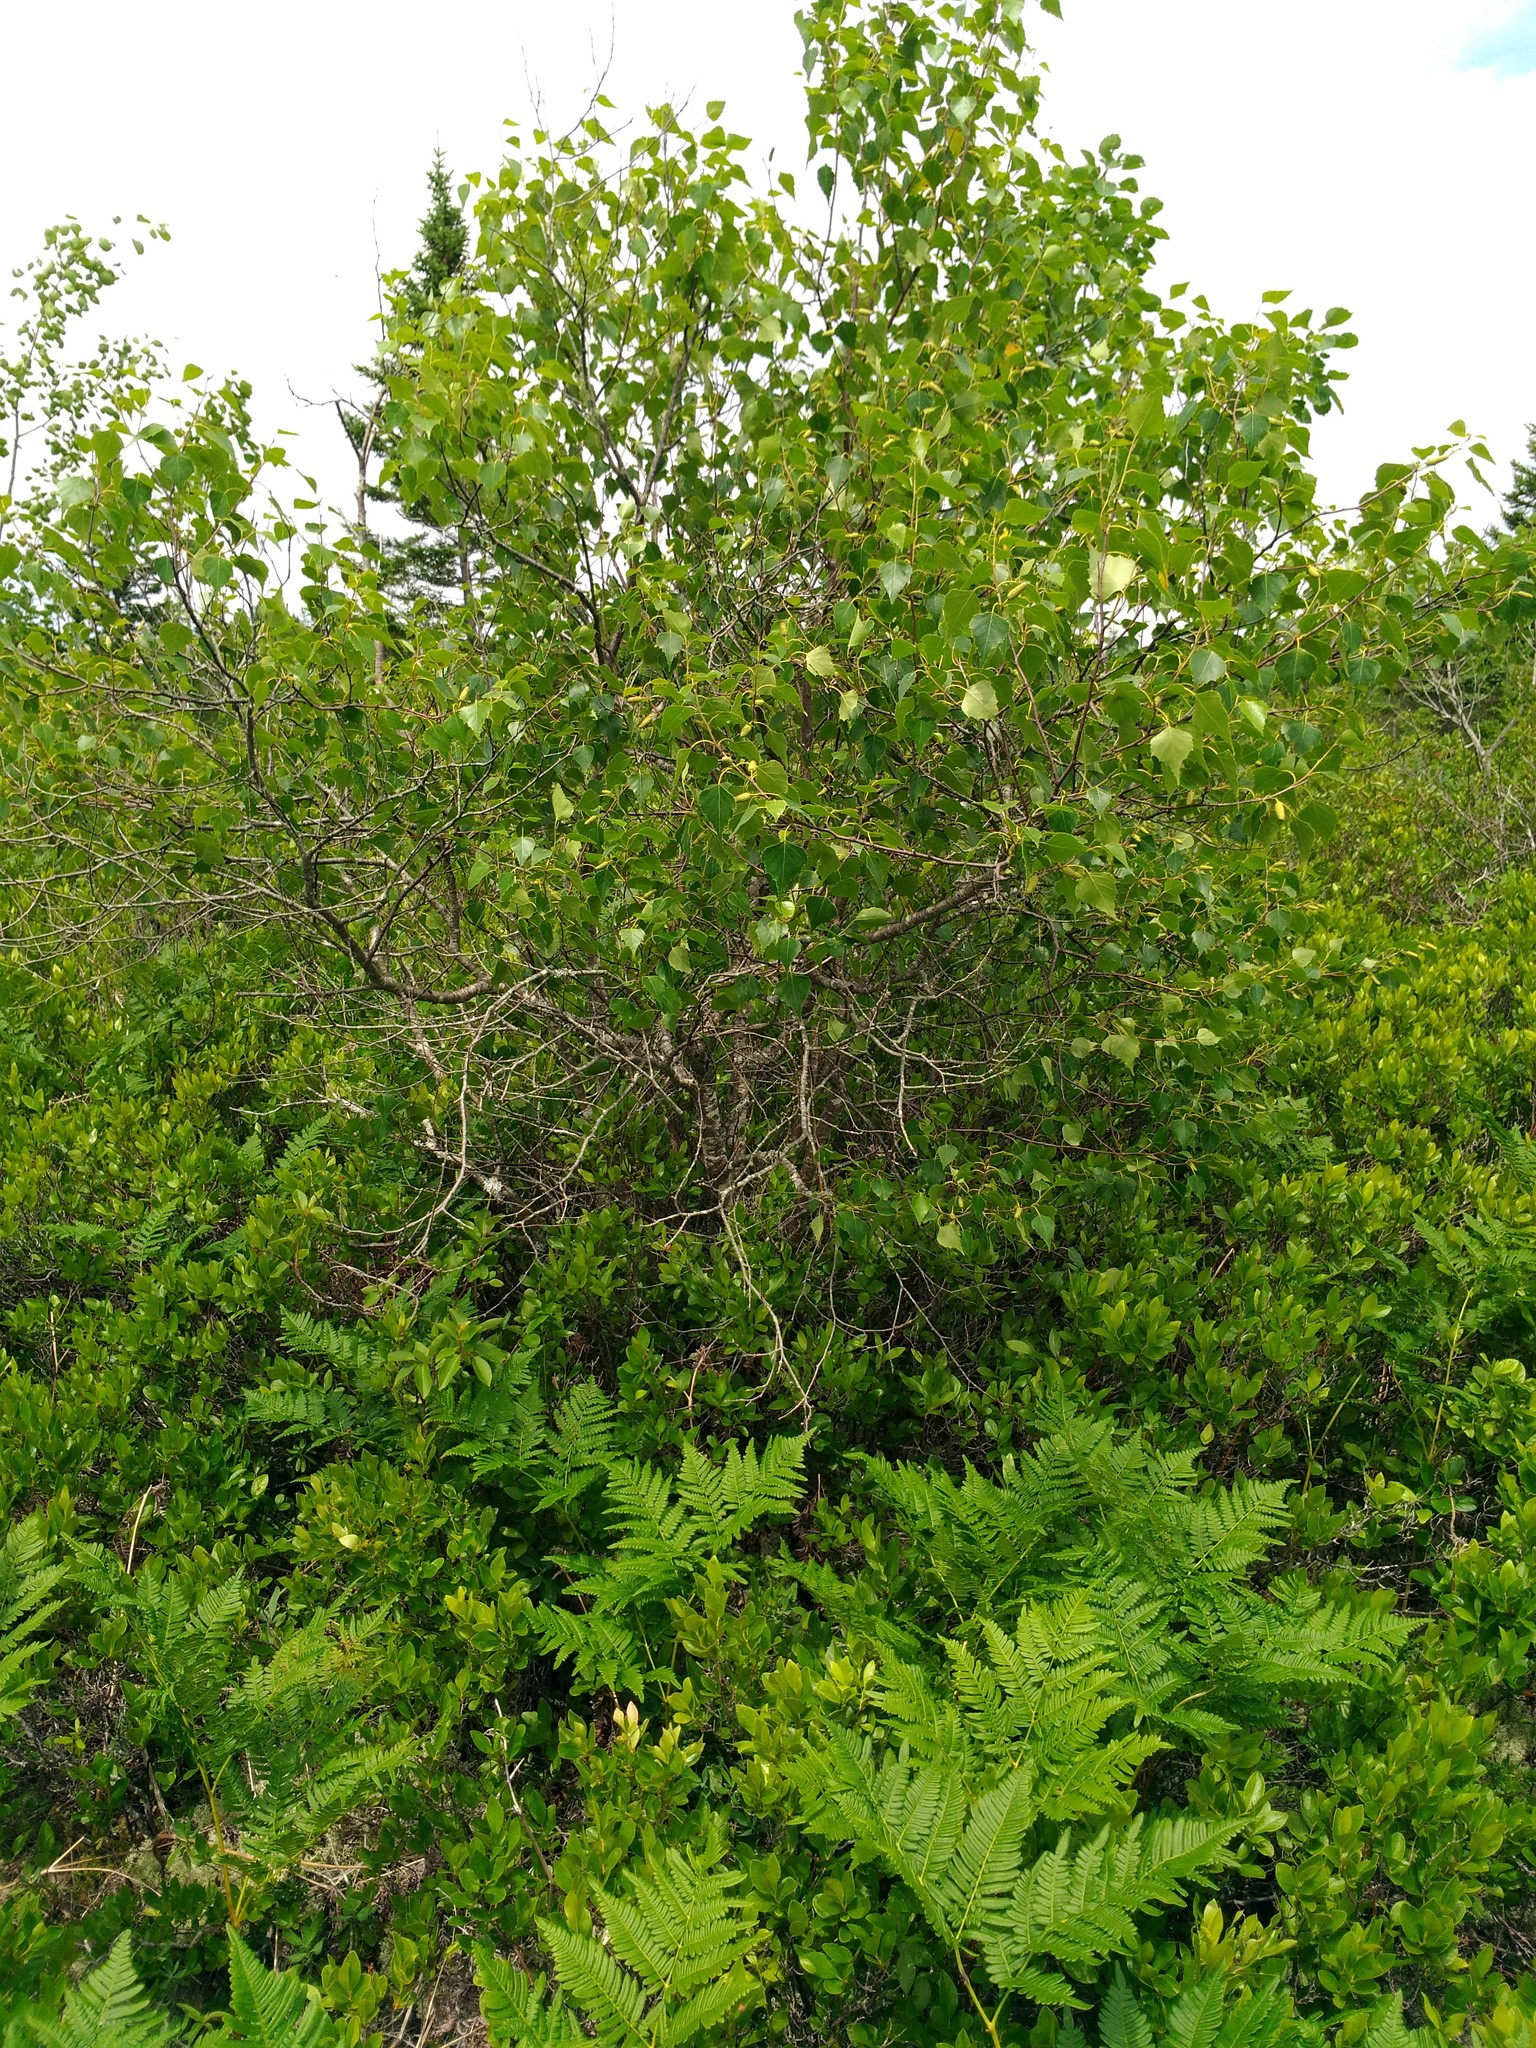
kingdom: Plantae
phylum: Tracheophyta
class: Magnoliopsida
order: Fagales
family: Betulaceae
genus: Betula
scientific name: Betula populifolia
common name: Fire birch
